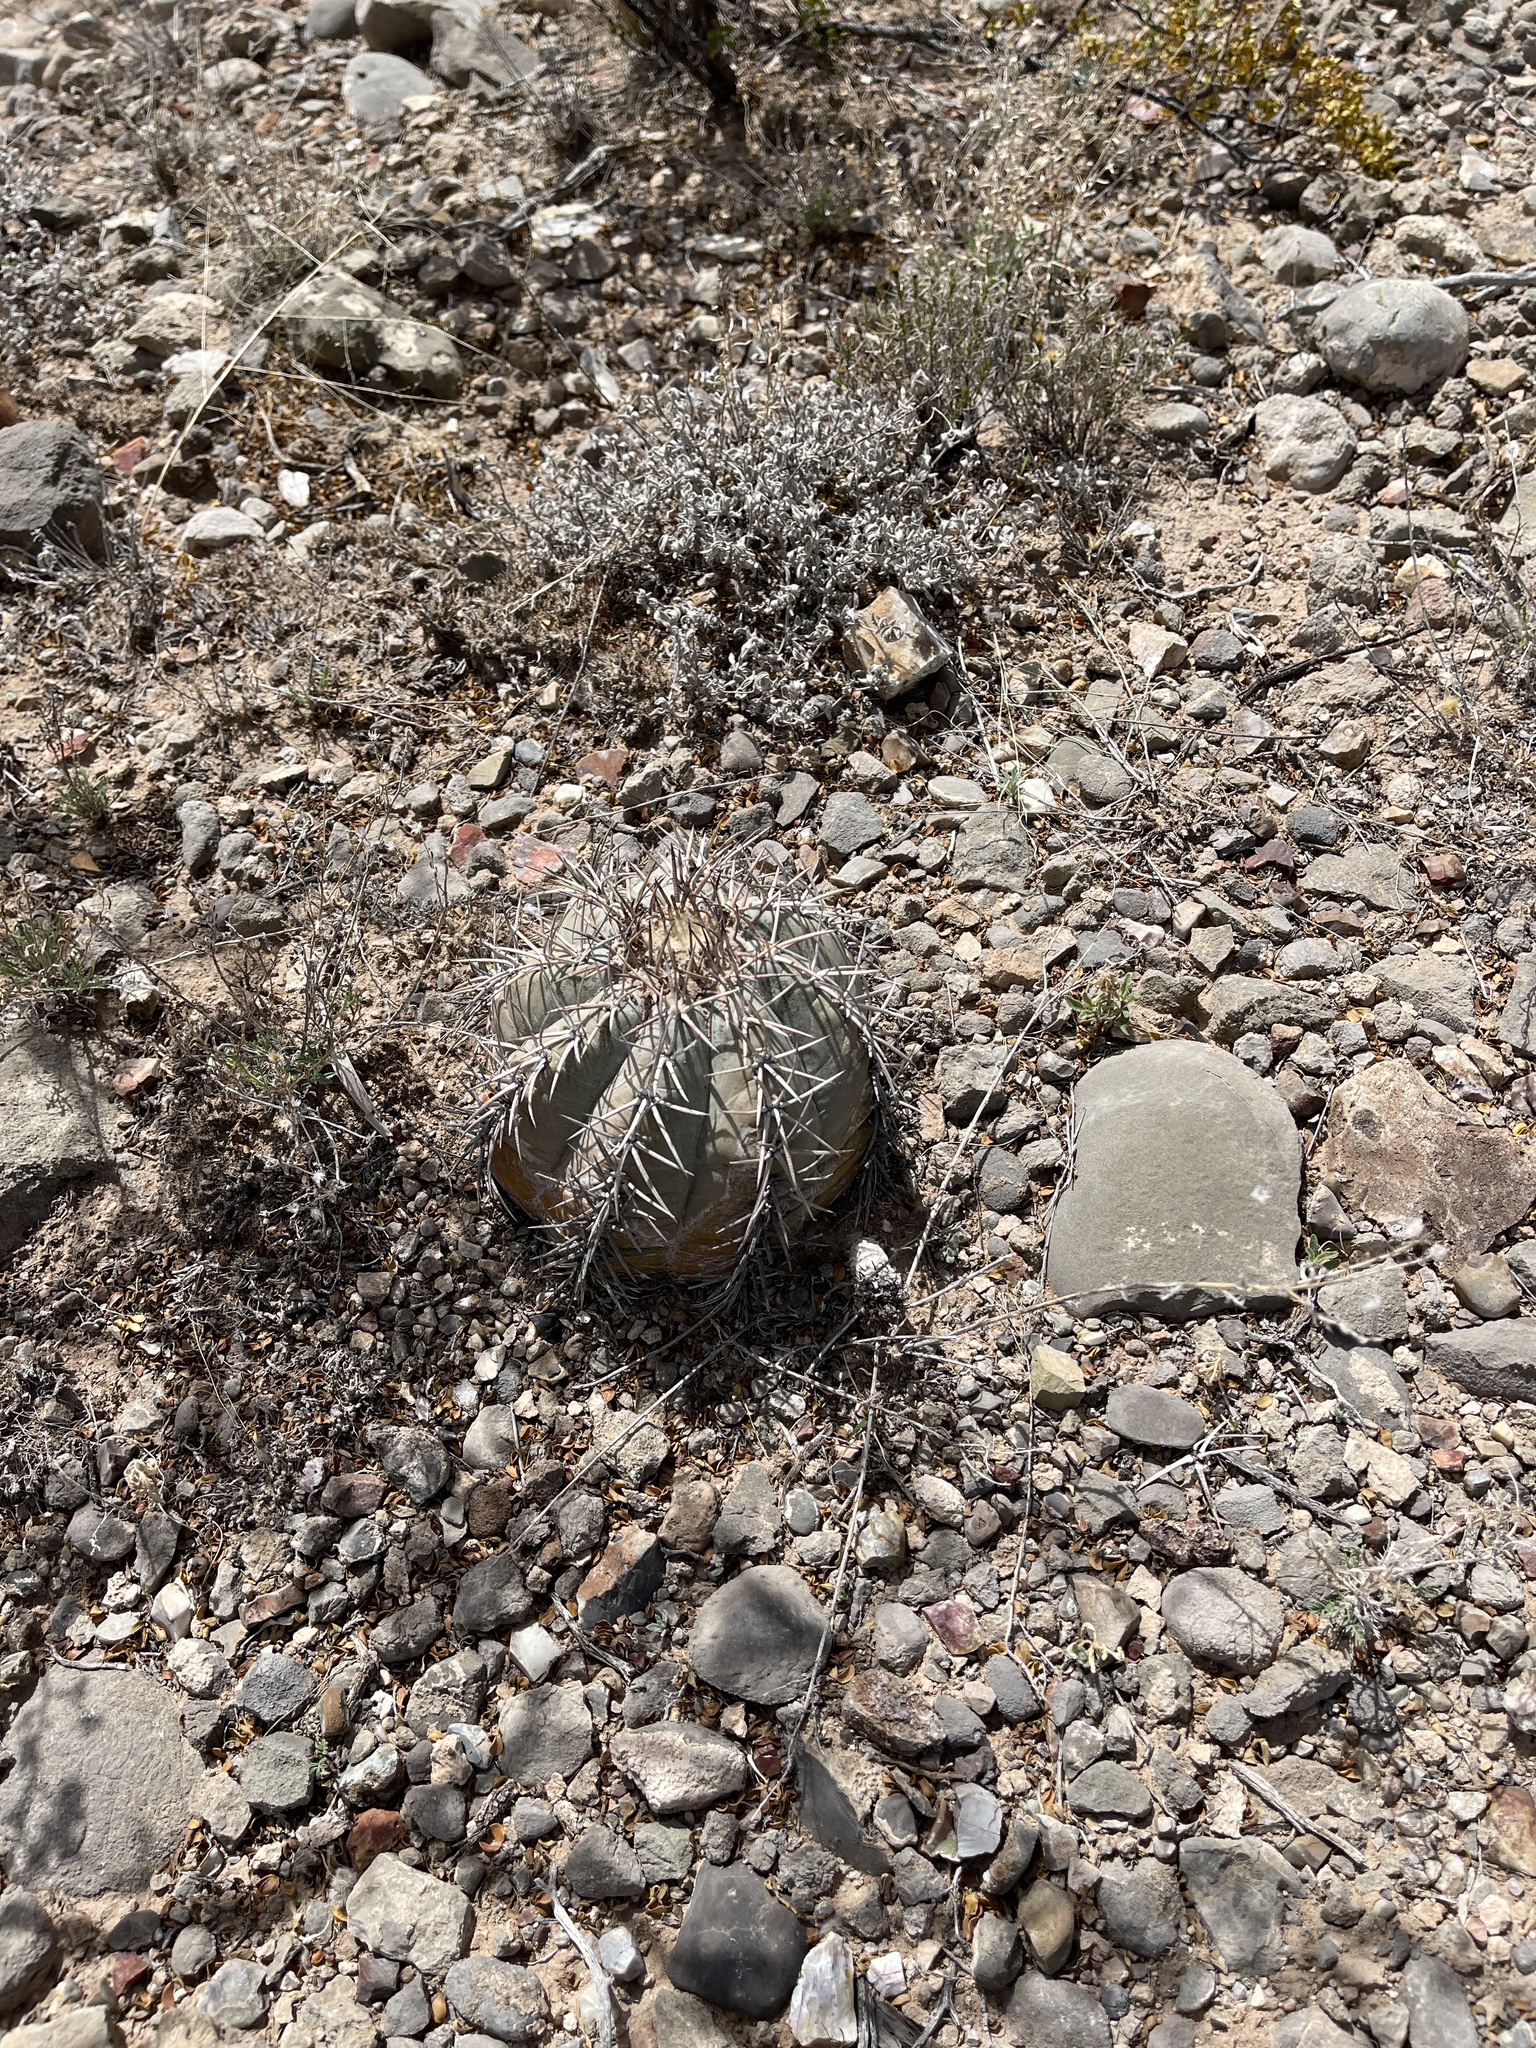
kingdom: Plantae
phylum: Tracheophyta
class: Magnoliopsida
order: Caryophyllales
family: Cactaceae
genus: Echinocactus
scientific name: Echinocactus horizonthalonius
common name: Devilshead
